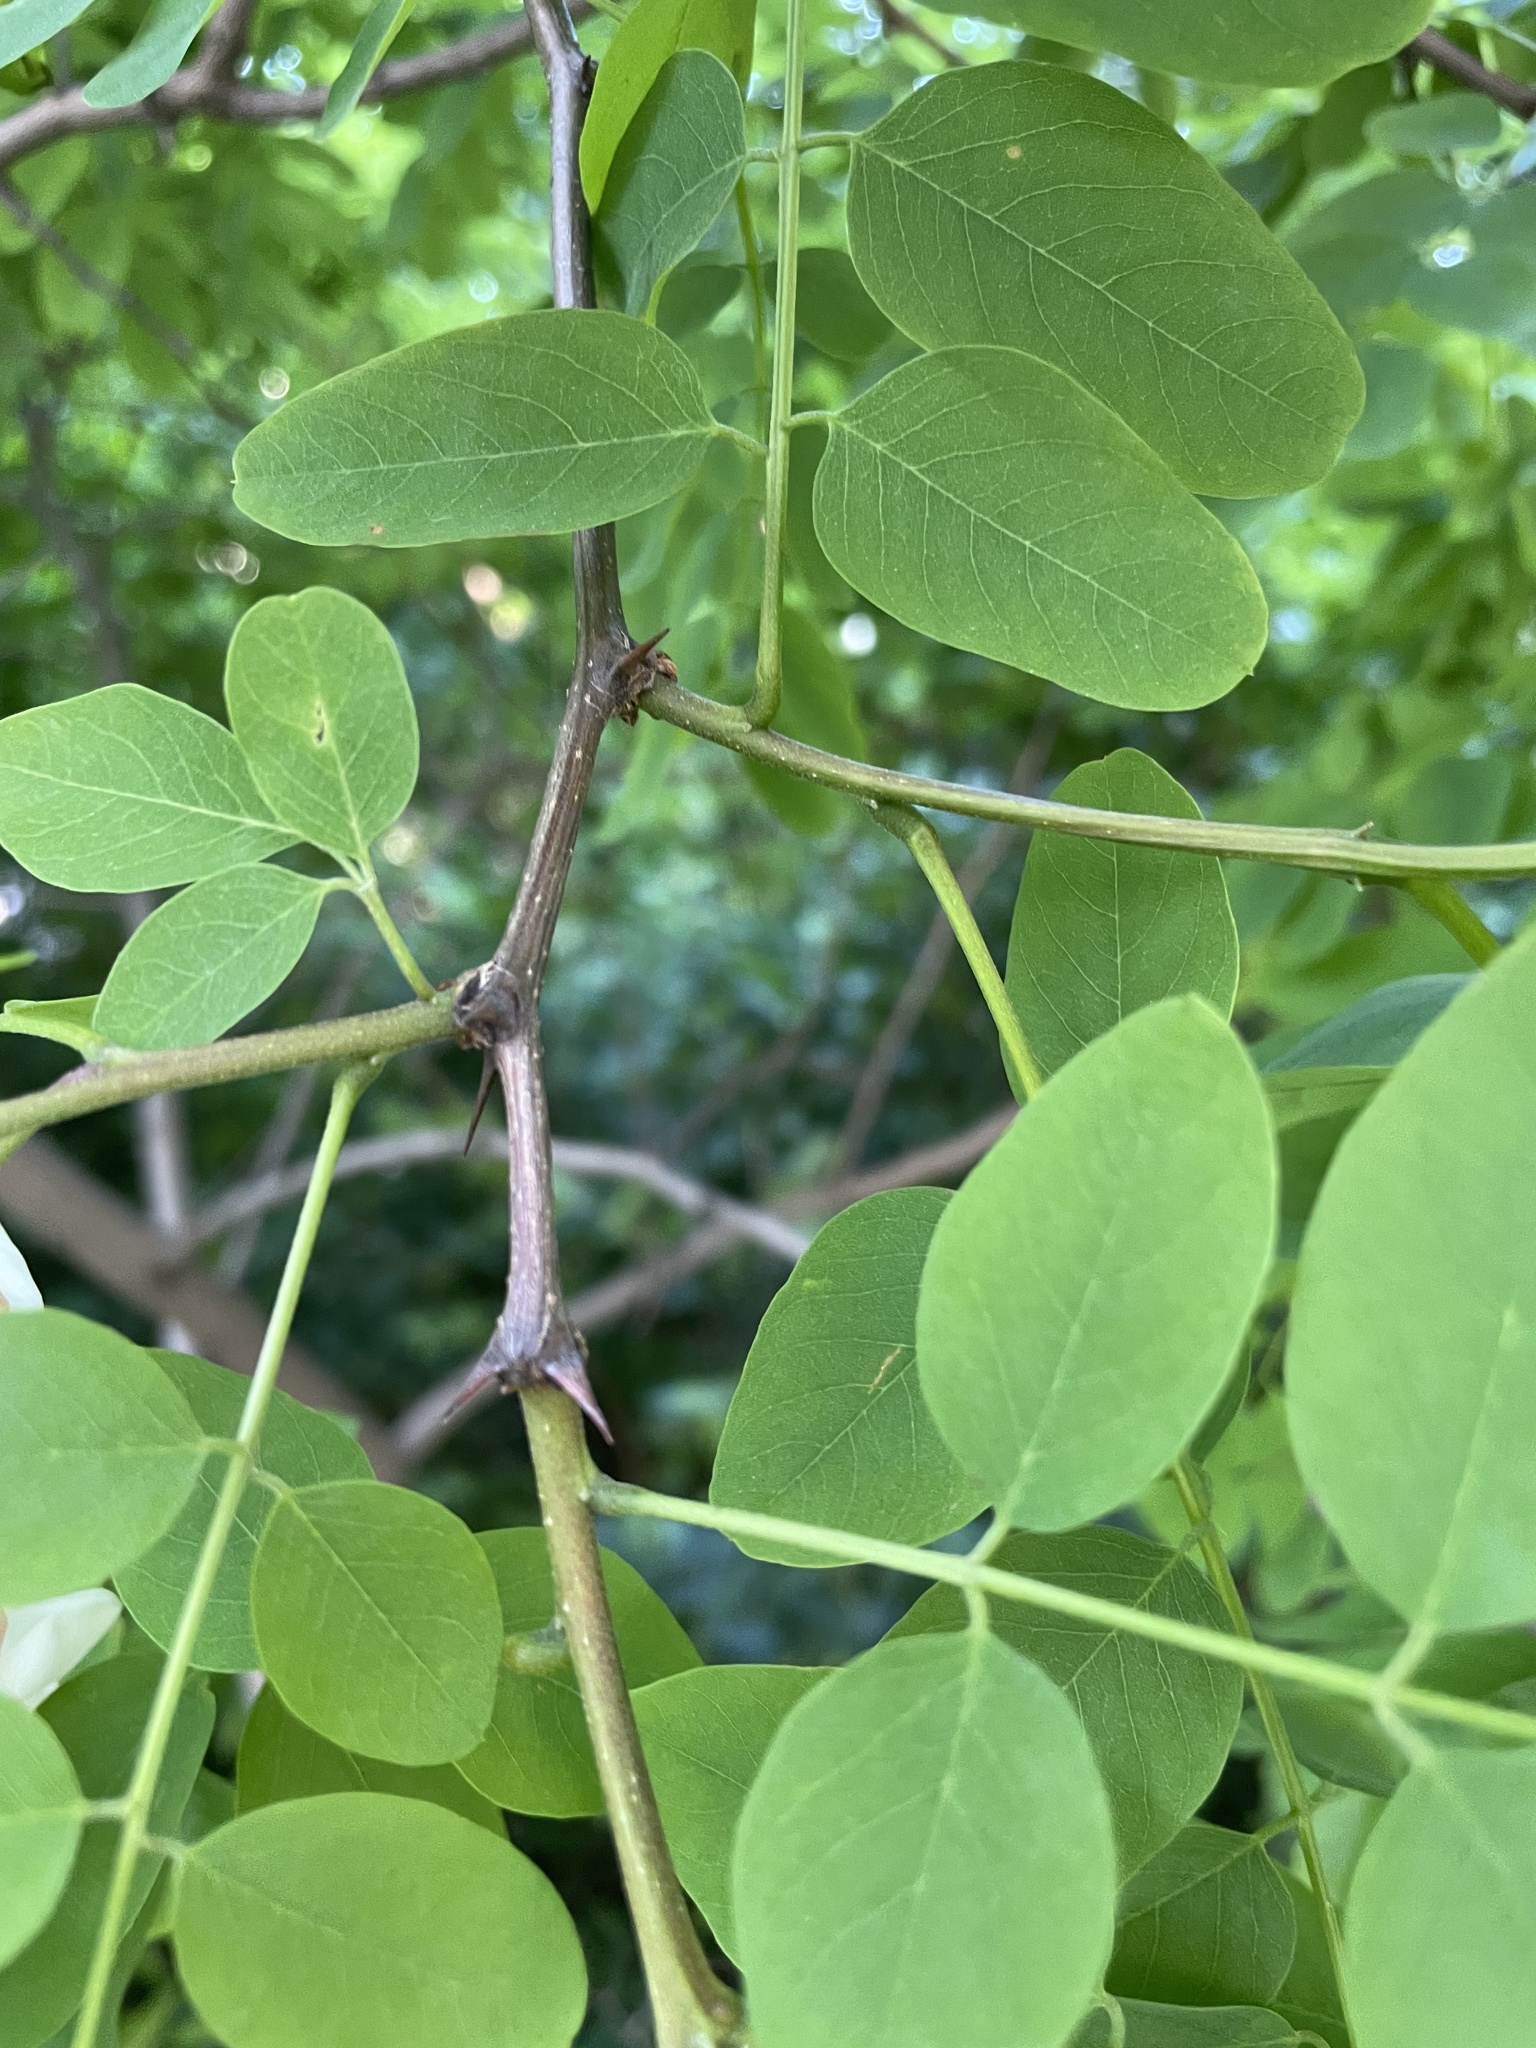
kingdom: Plantae
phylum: Tracheophyta
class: Magnoliopsida
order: Fabales
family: Fabaceae
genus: Robinia
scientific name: Robinia pseudoacacia
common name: Black locust
